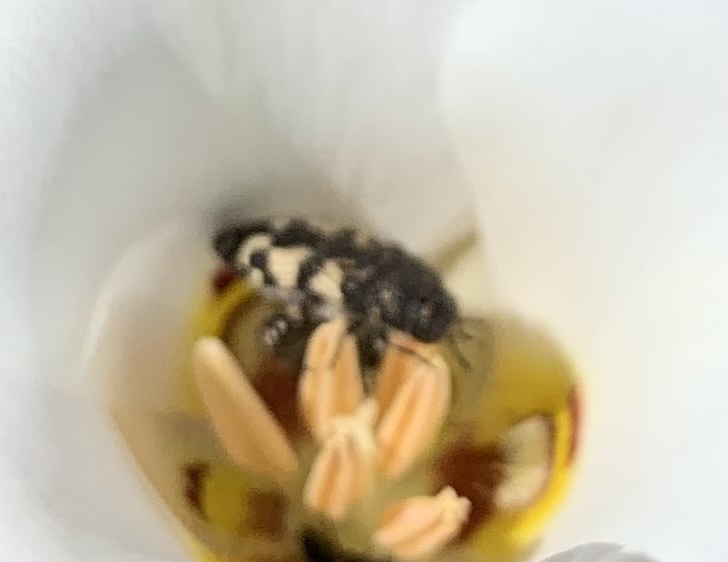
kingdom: Animalia
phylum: Arthropoda
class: Insecta
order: Coleoptera
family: Buprestidae
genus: Acmaeodera
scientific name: Acmaeodera diffusa
